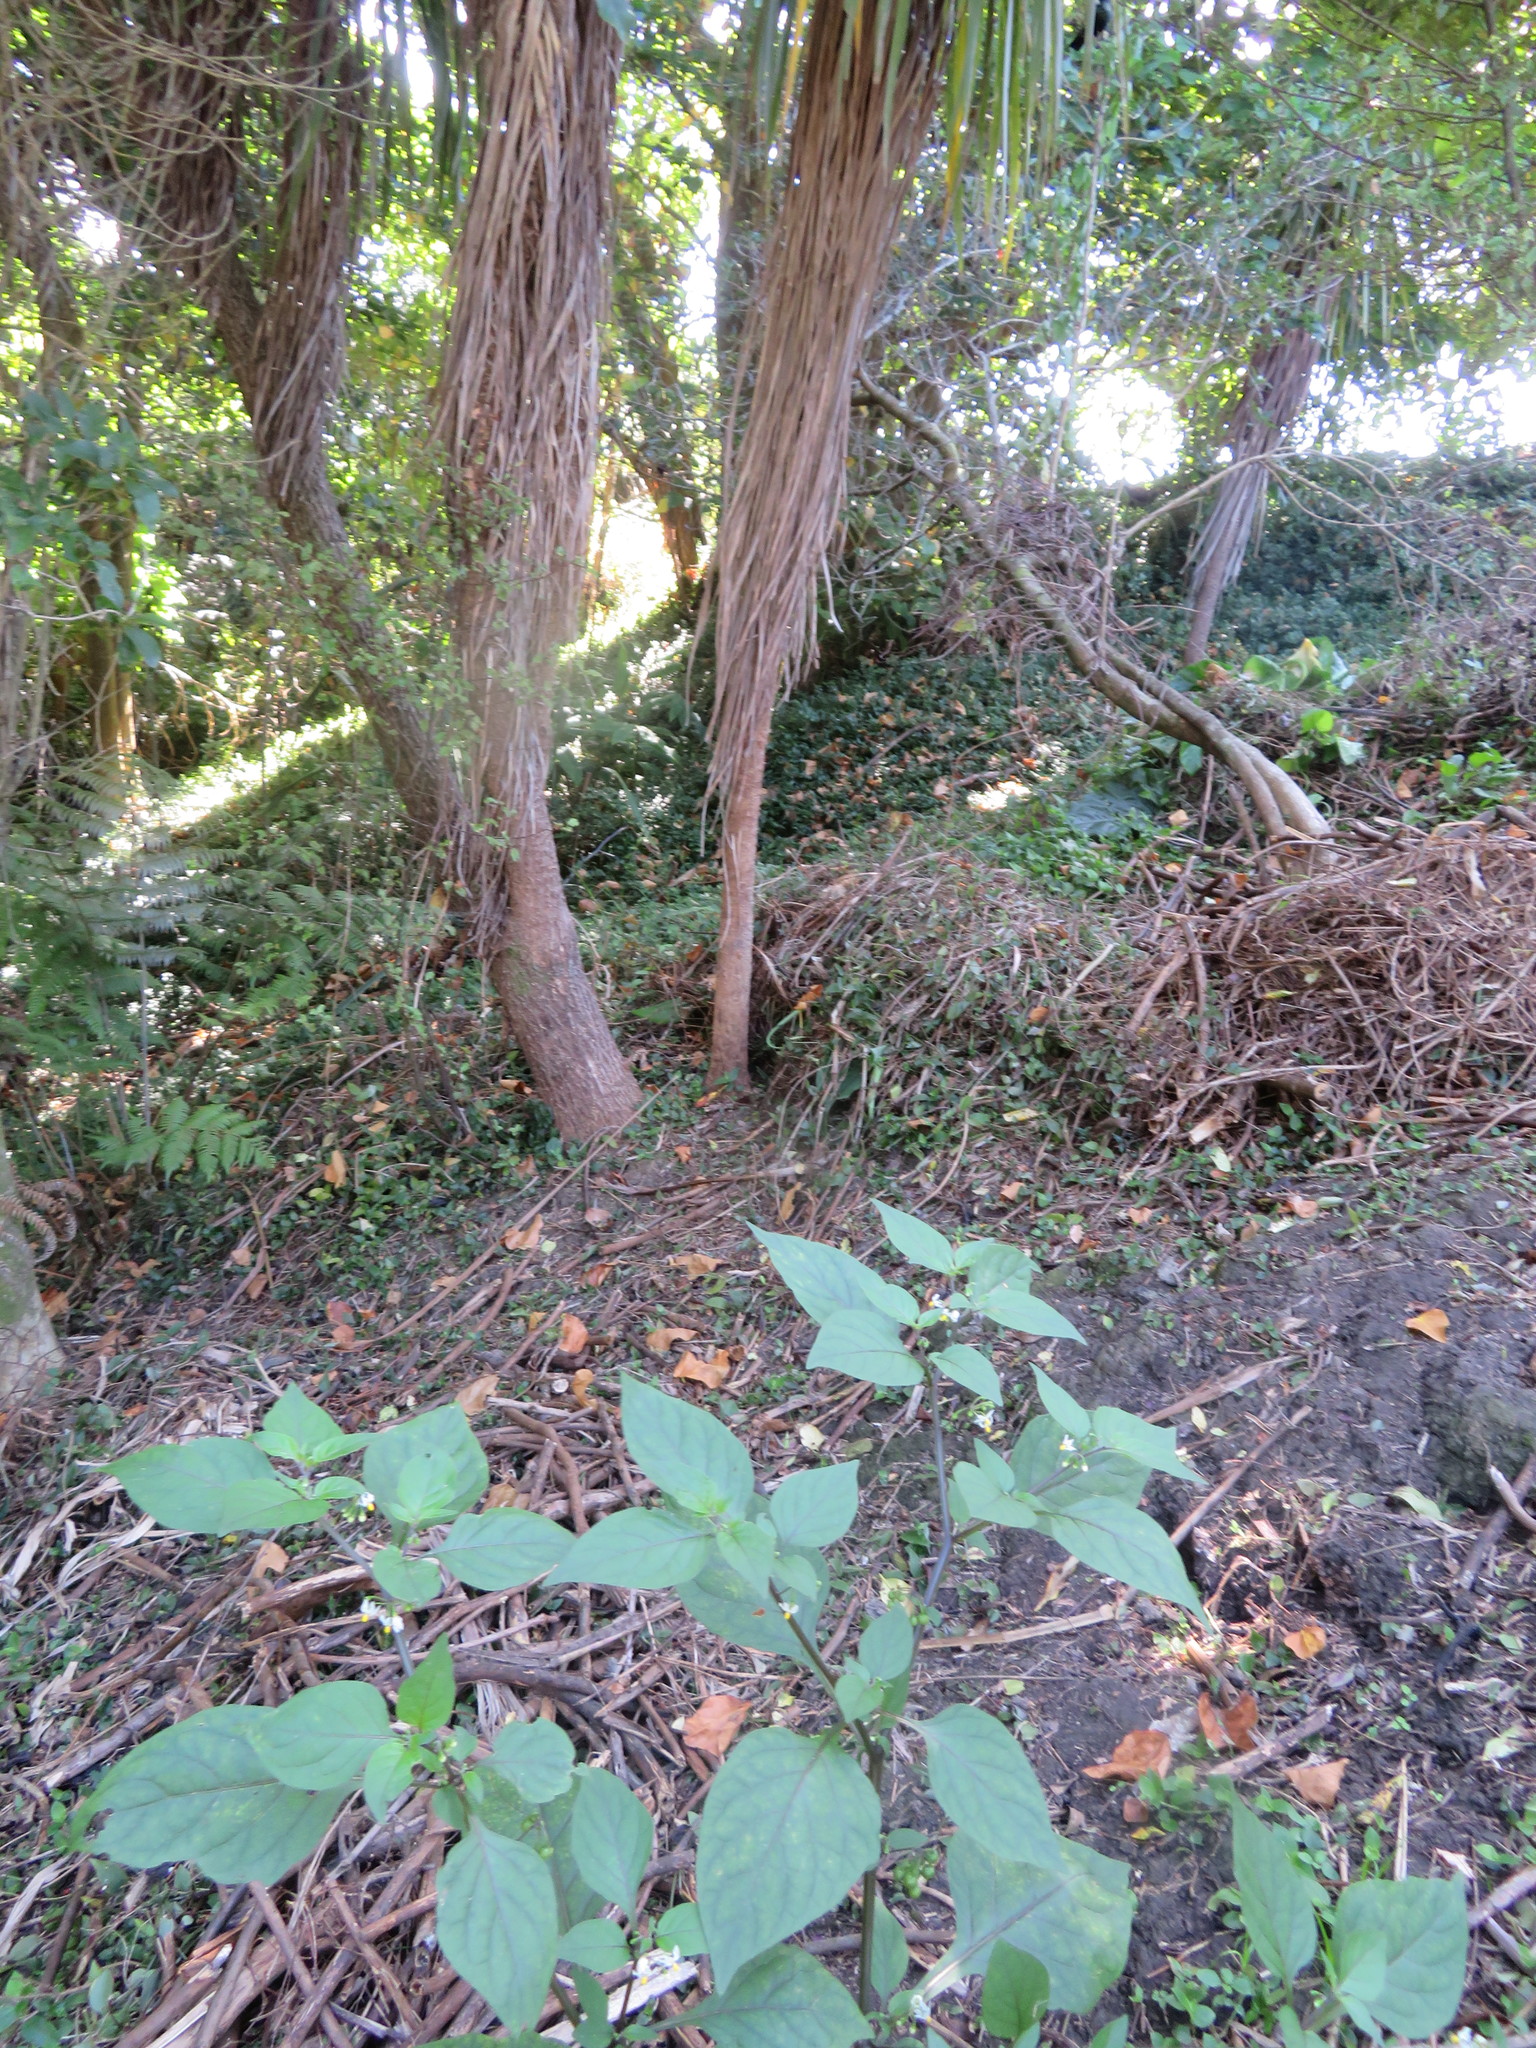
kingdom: Plantae
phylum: Tracheophyta
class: Liliopsida
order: Commelinales
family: Commelinaceae
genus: Tradescantia
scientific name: Tradescantia fluminensis
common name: Wandering-jew
